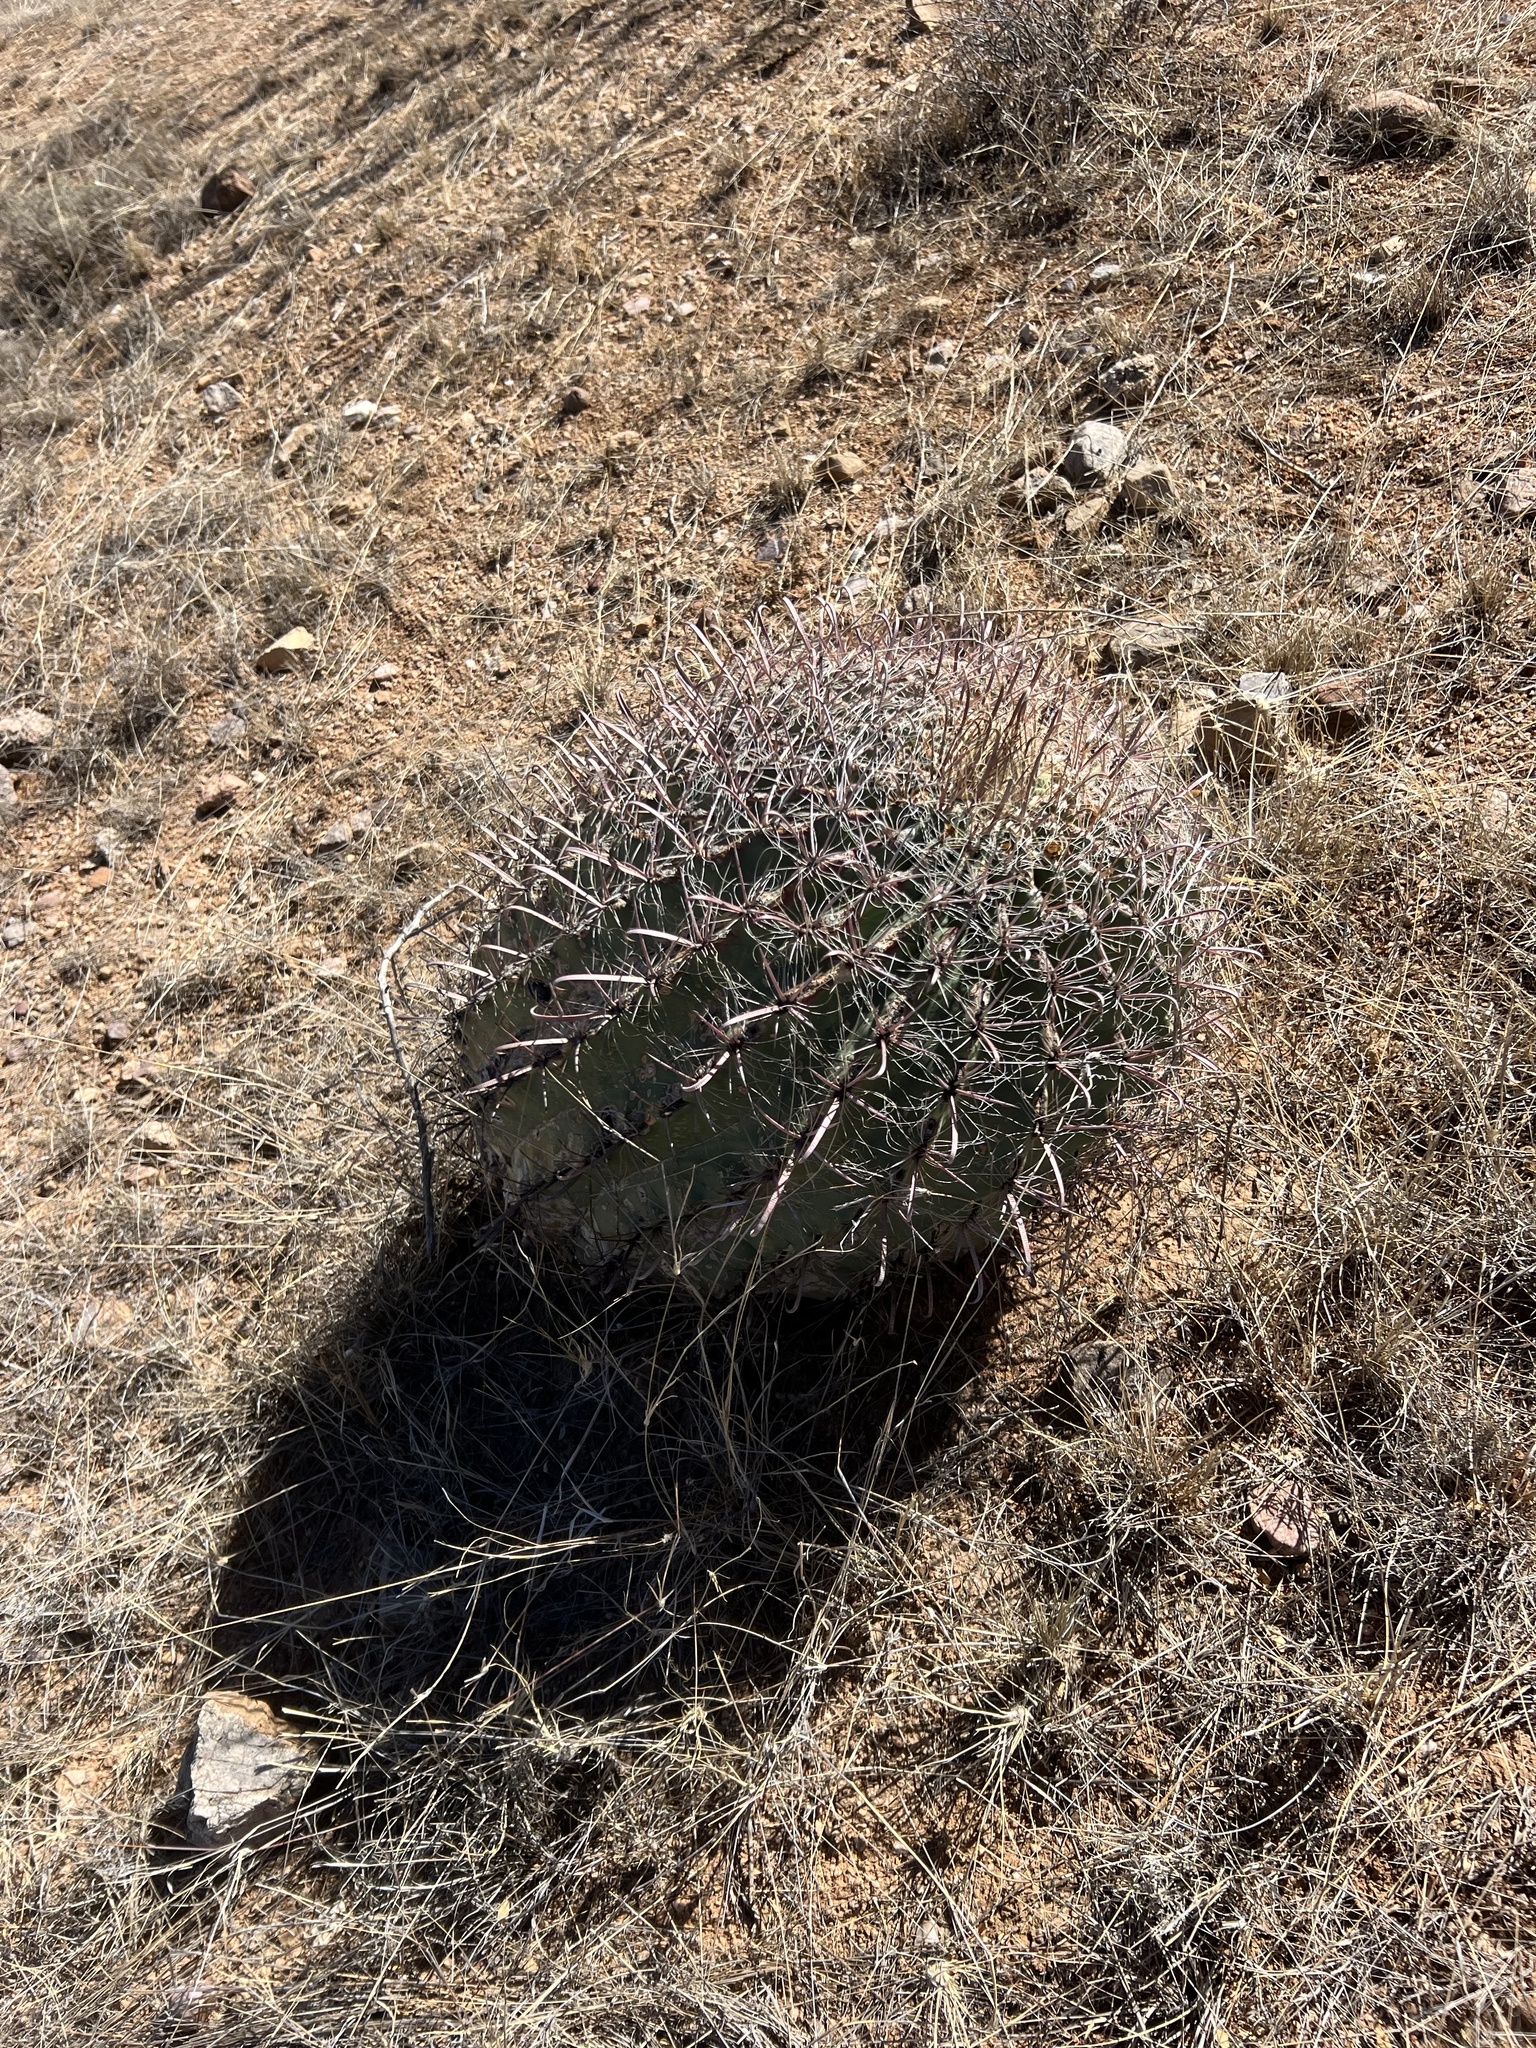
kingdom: Plantae
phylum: Tracheophyta
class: Magnoliopsida
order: Caryophyllales
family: Cactaceae
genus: Ferocactus
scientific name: Ferocactus wislizeni
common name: Candy barrel cactus
